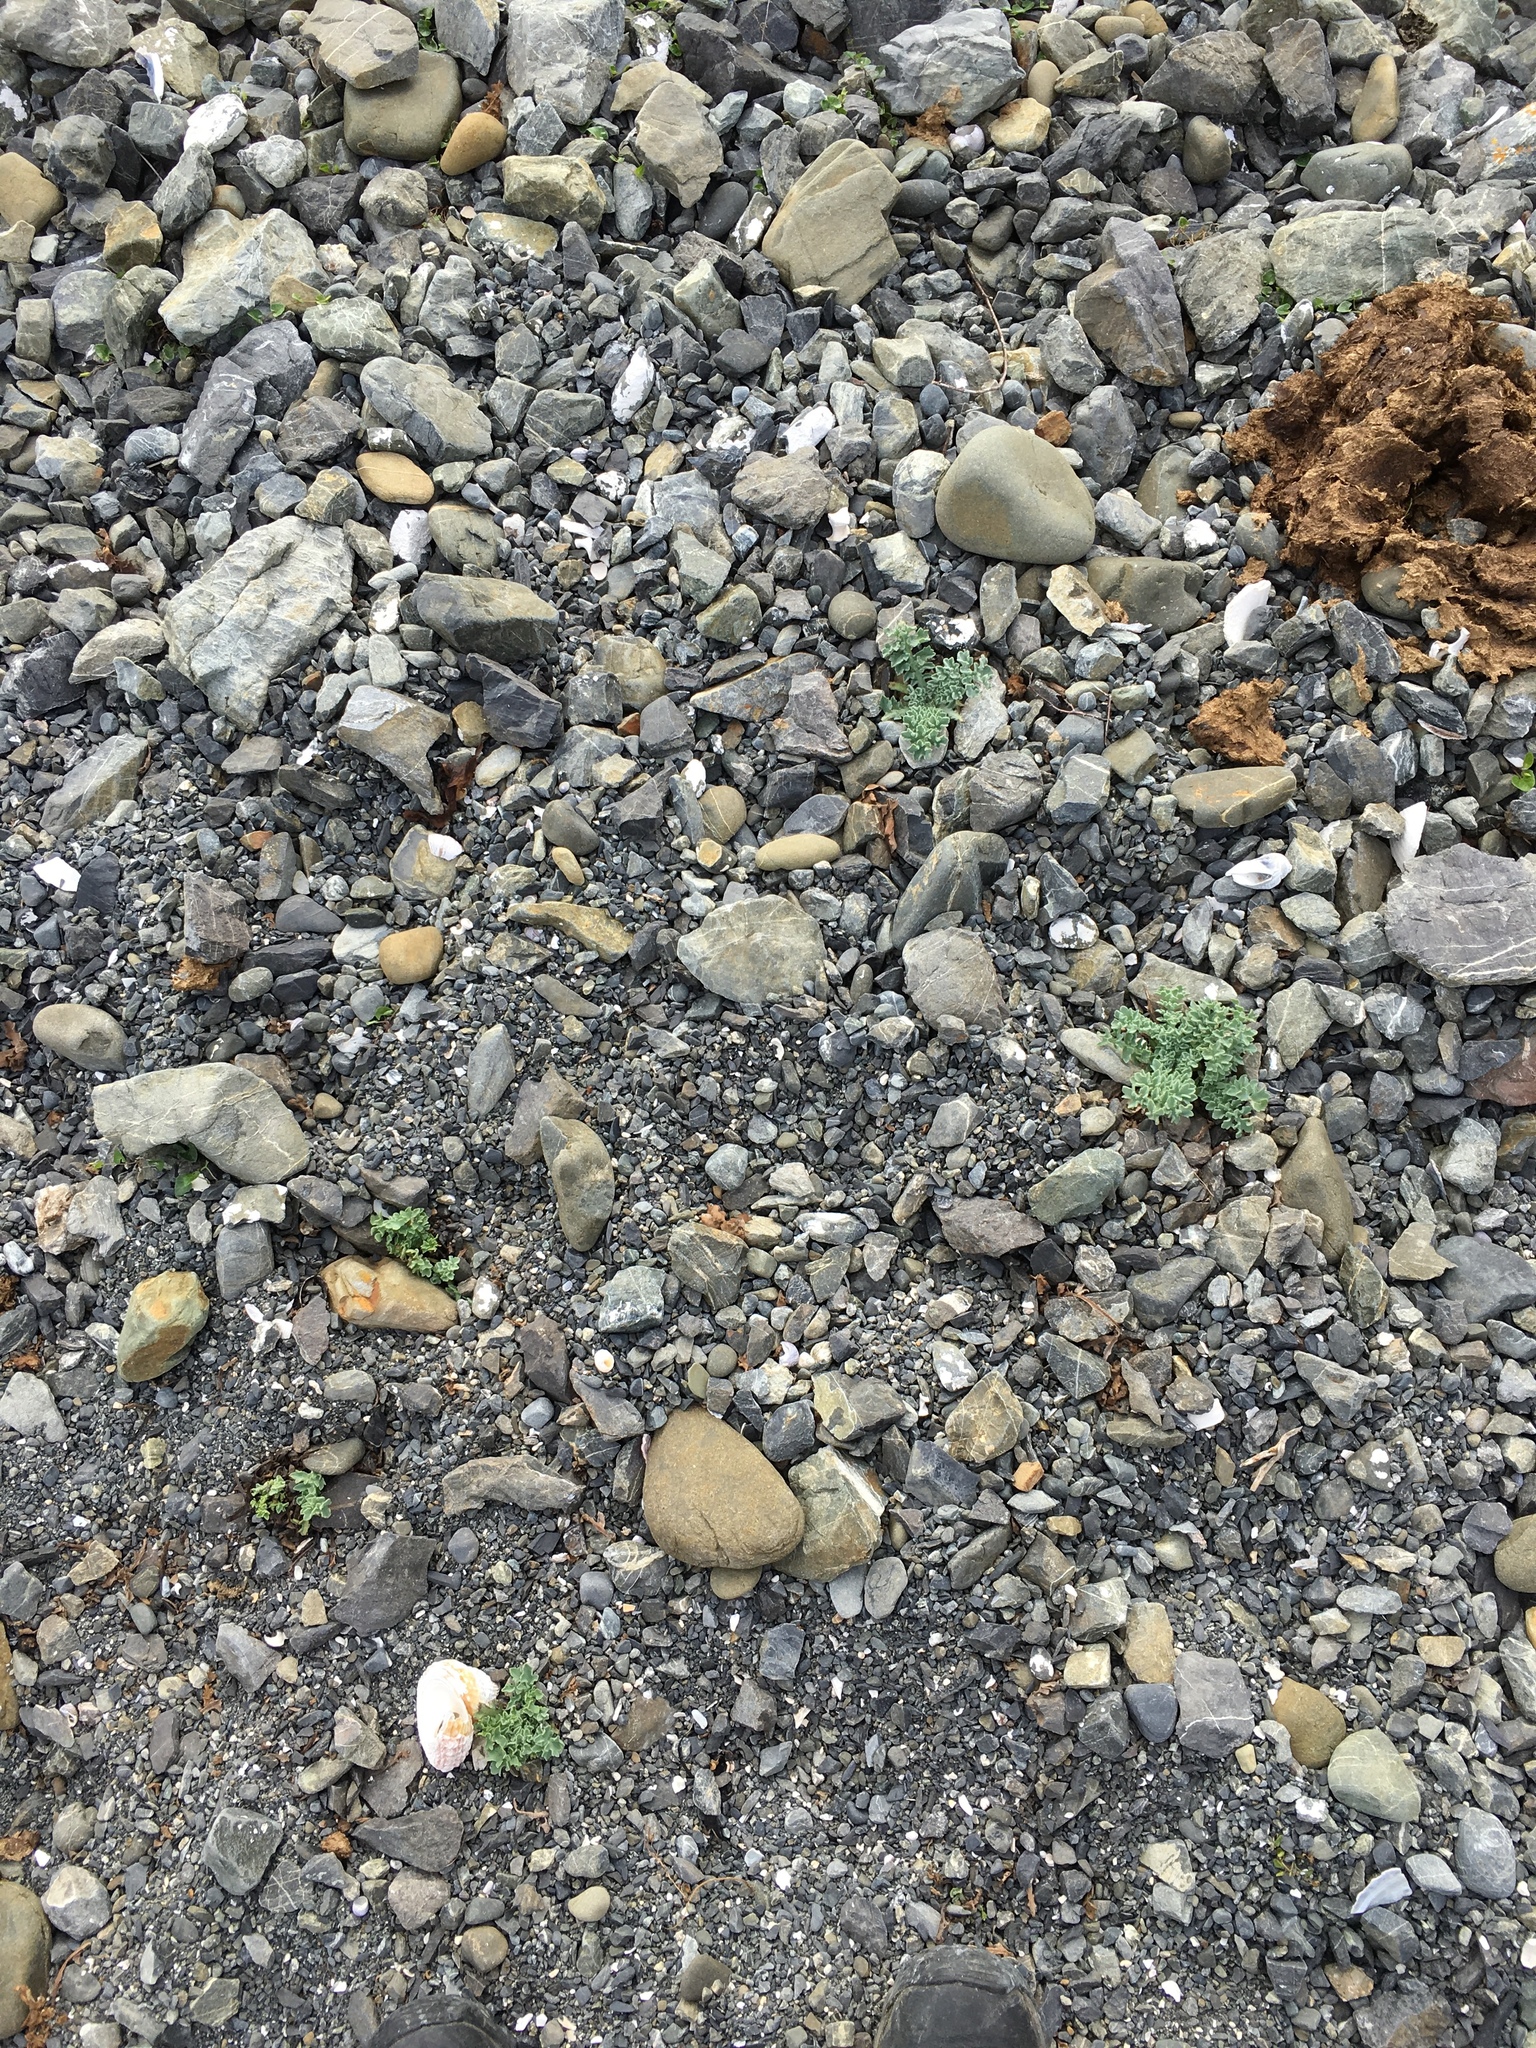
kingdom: Plantae
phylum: Tracheophyta
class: Magnoliopsida
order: Ranunculales
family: Papaveraceae
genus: Glaucium
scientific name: Glaucium flavum
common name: Yellow horned-poppy
